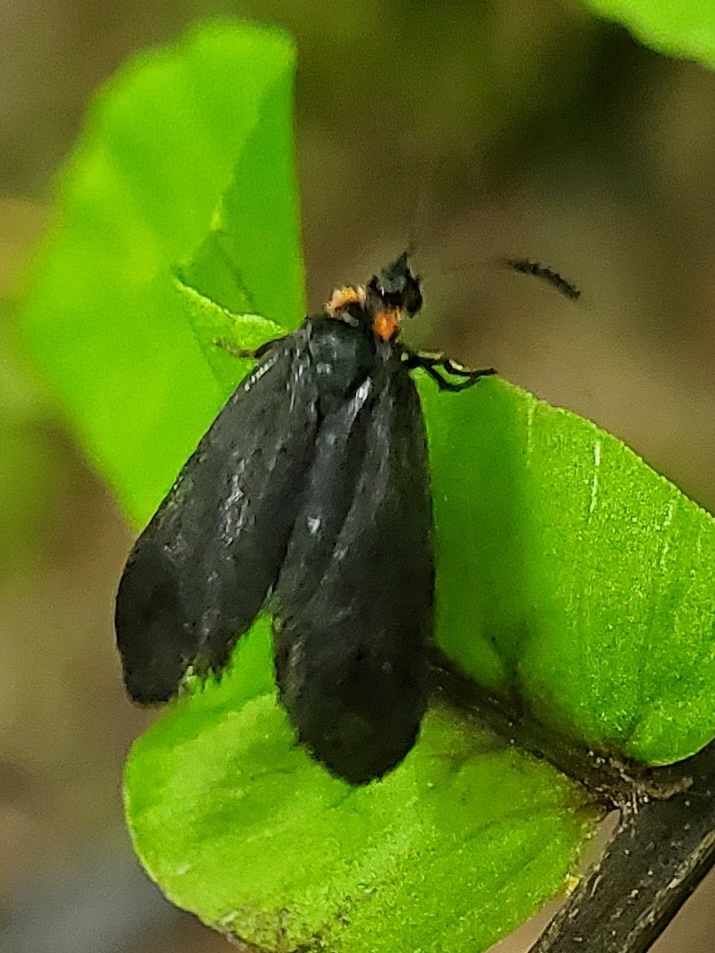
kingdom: Animalia
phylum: Arthropoda
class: Insecta
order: Lepidoptera
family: Zygaenidae
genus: Acoloithus
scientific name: Acoloithus falsarius
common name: Clemens' false skeletonizer
